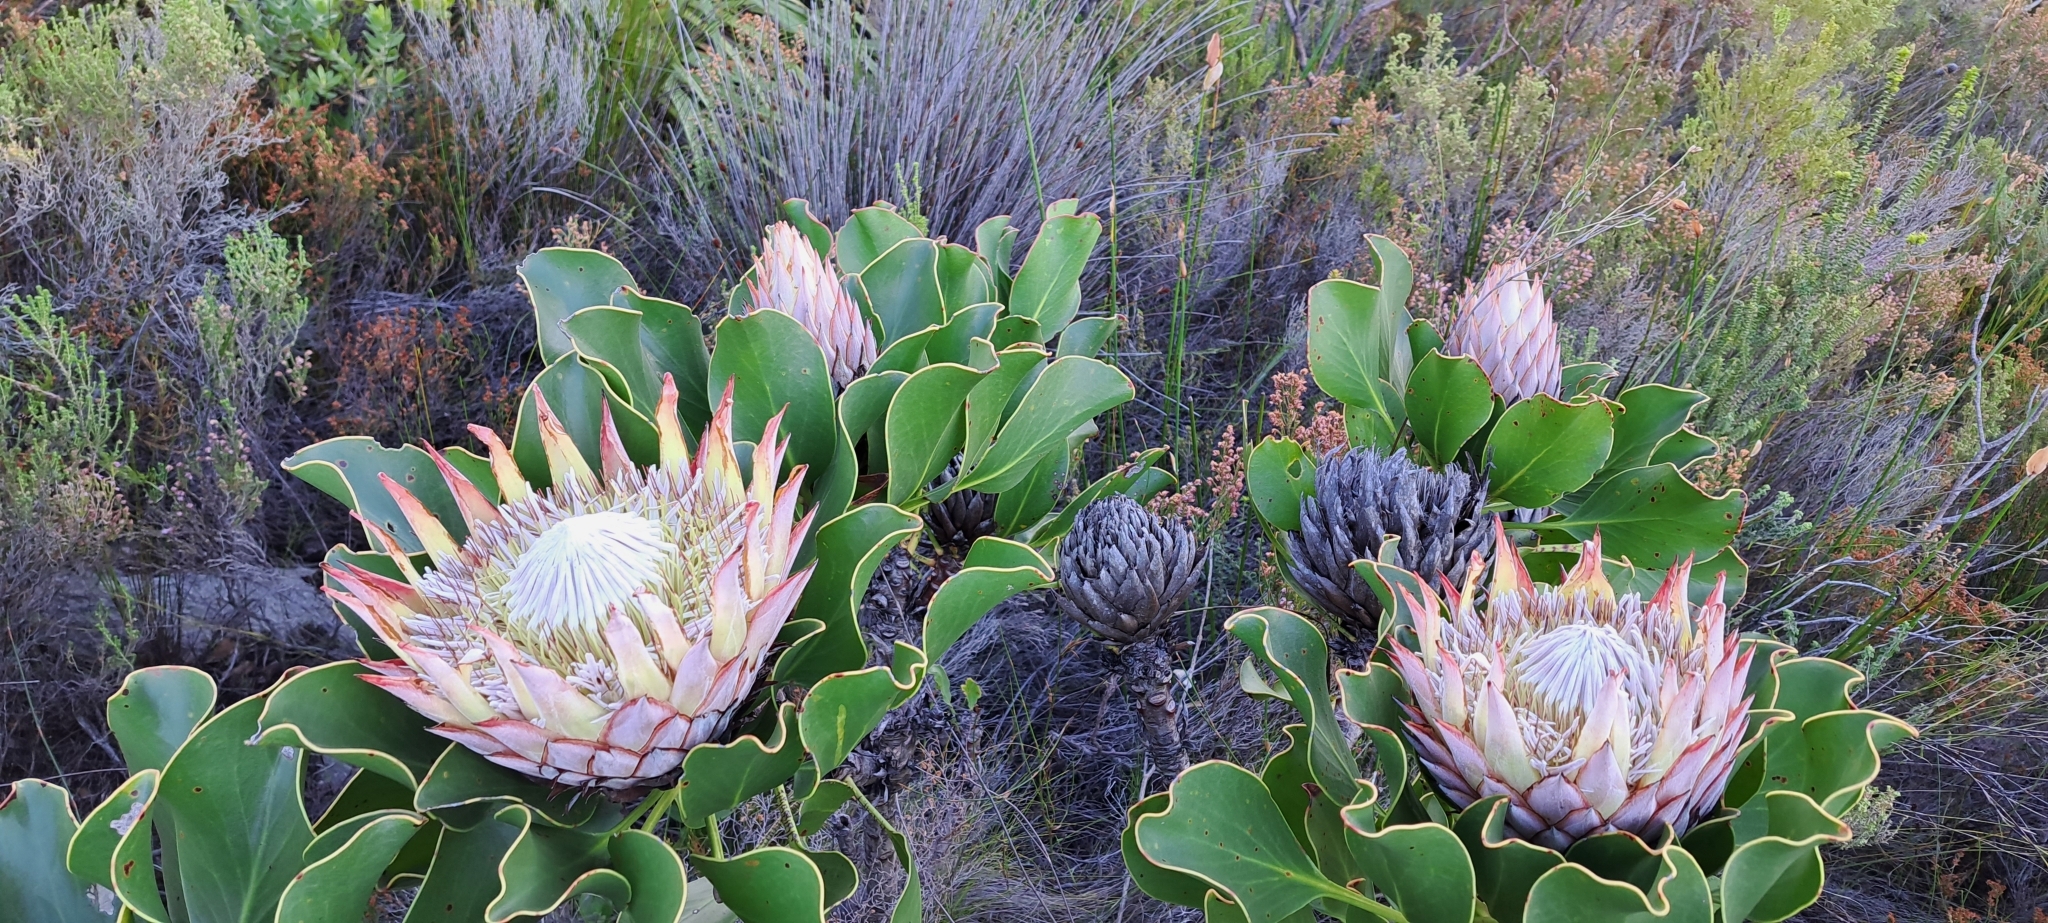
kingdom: Plantae
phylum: Tracheophyta
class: Magnoliopsida
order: Proteales
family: Proteaceae
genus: Protea
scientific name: Protea cynaroides
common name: King protea
